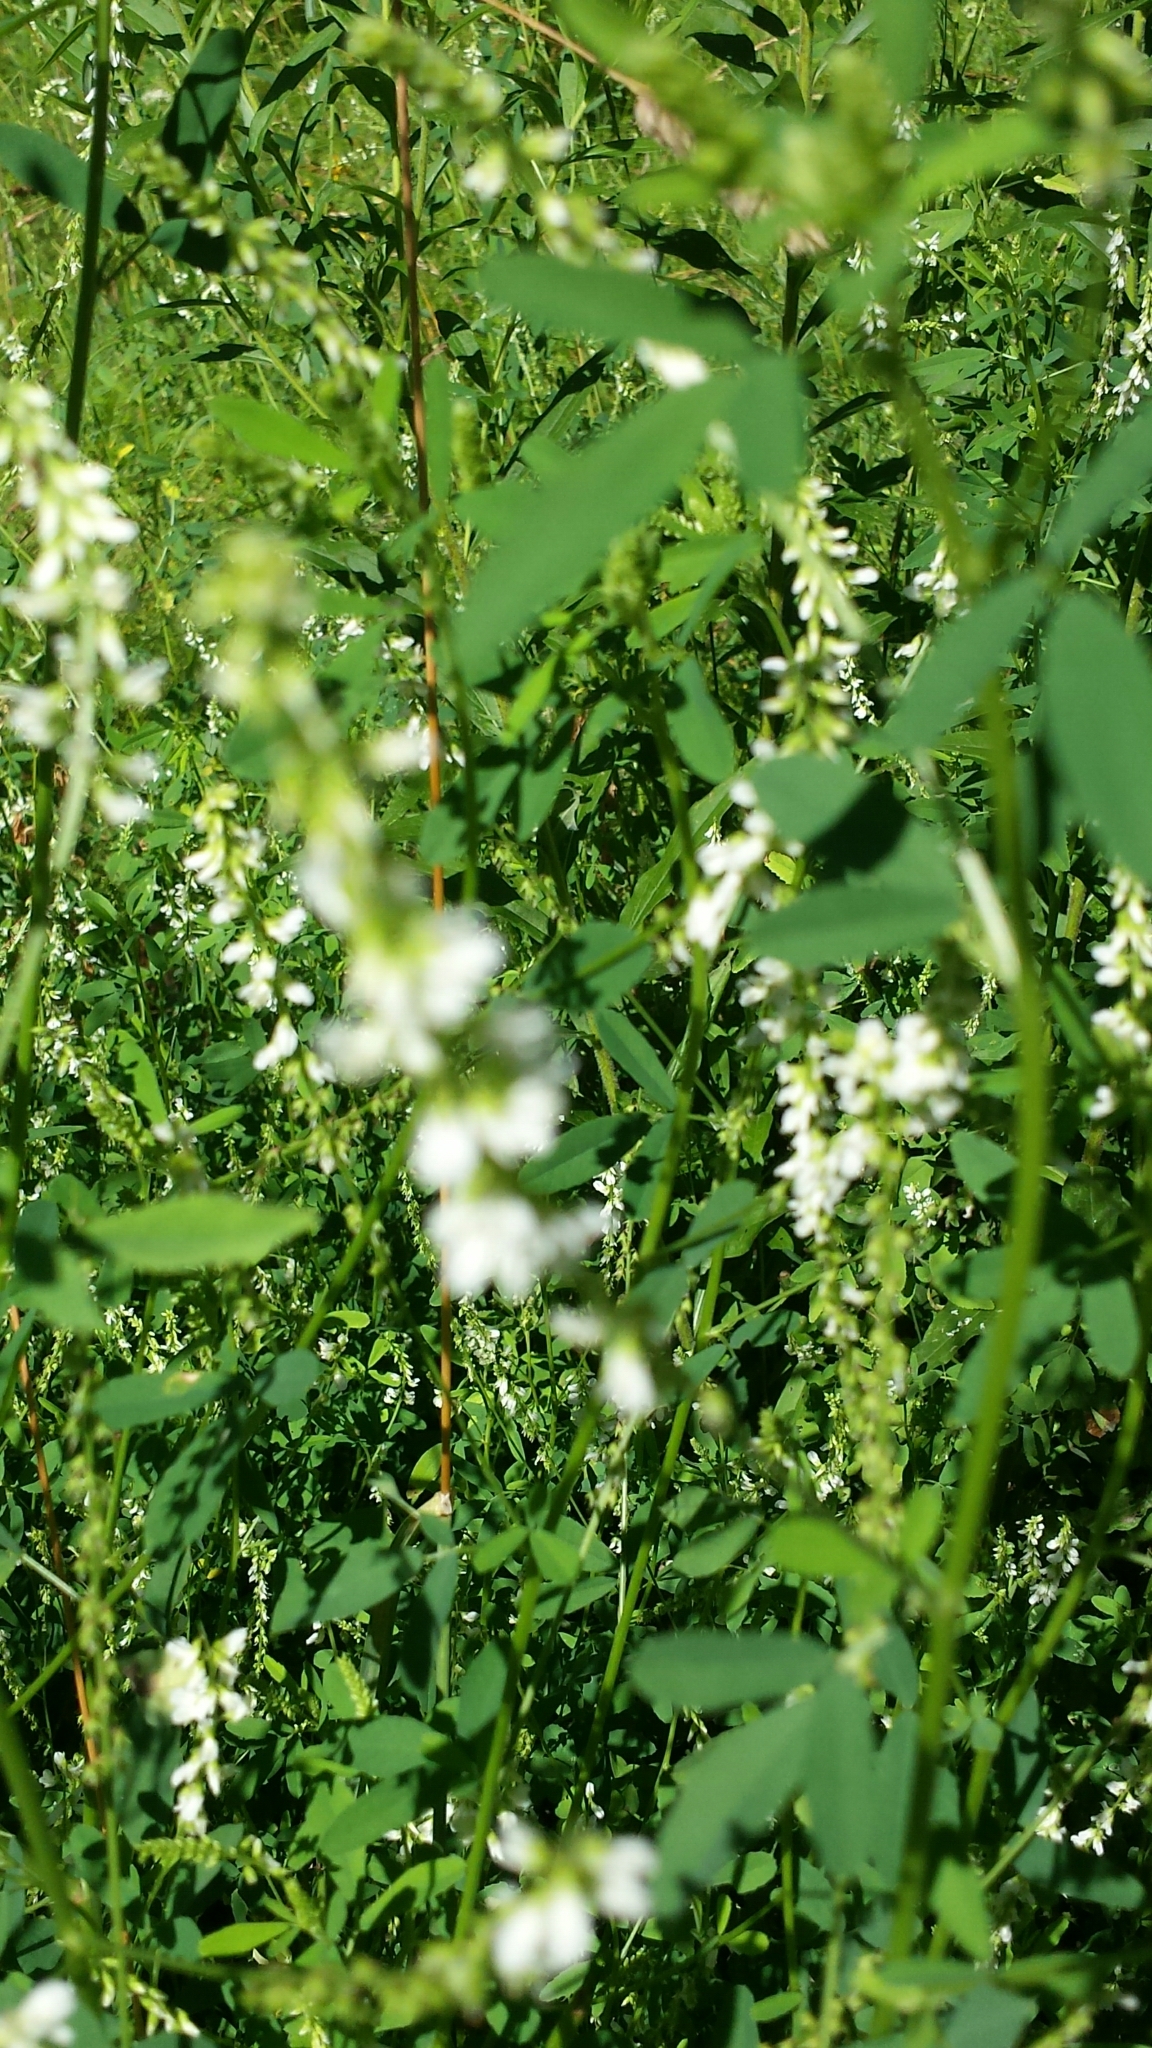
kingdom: Plantae
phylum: Tracheophyta
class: Magnoliopsida
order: Fabales
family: Fabaceae
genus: Melilotus
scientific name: Melilotus albus
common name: White melilot
